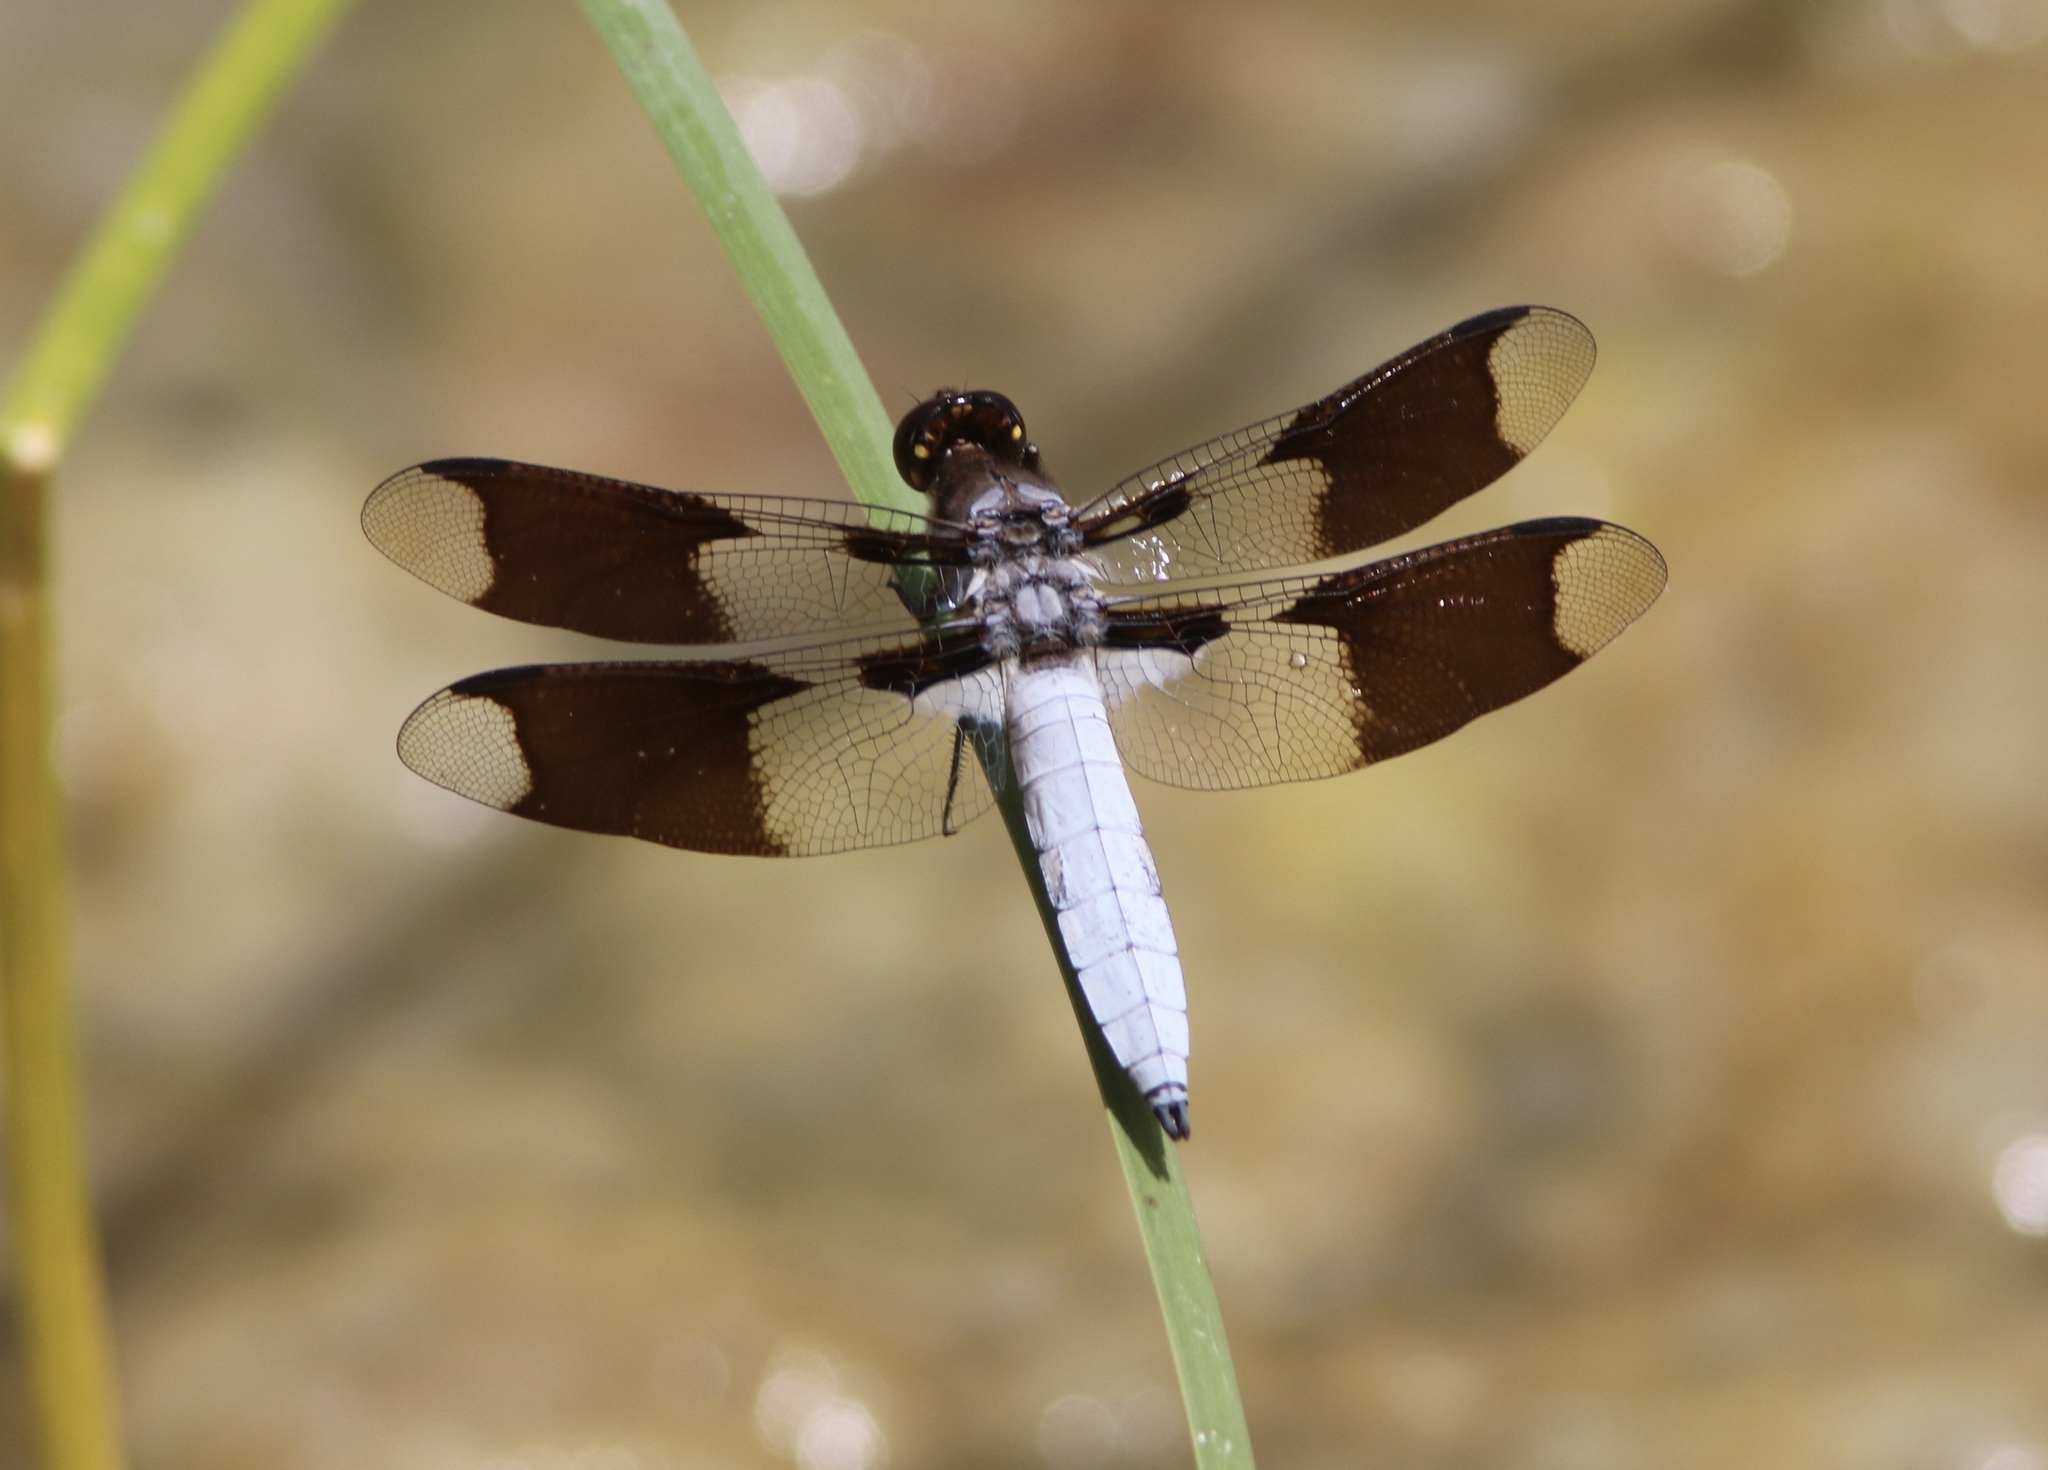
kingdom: Animalia
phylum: Arthropoda
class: Insecta
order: Odonata
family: Libellulidae
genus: Plathemis
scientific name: Plathemis lydia
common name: Common whitetail
